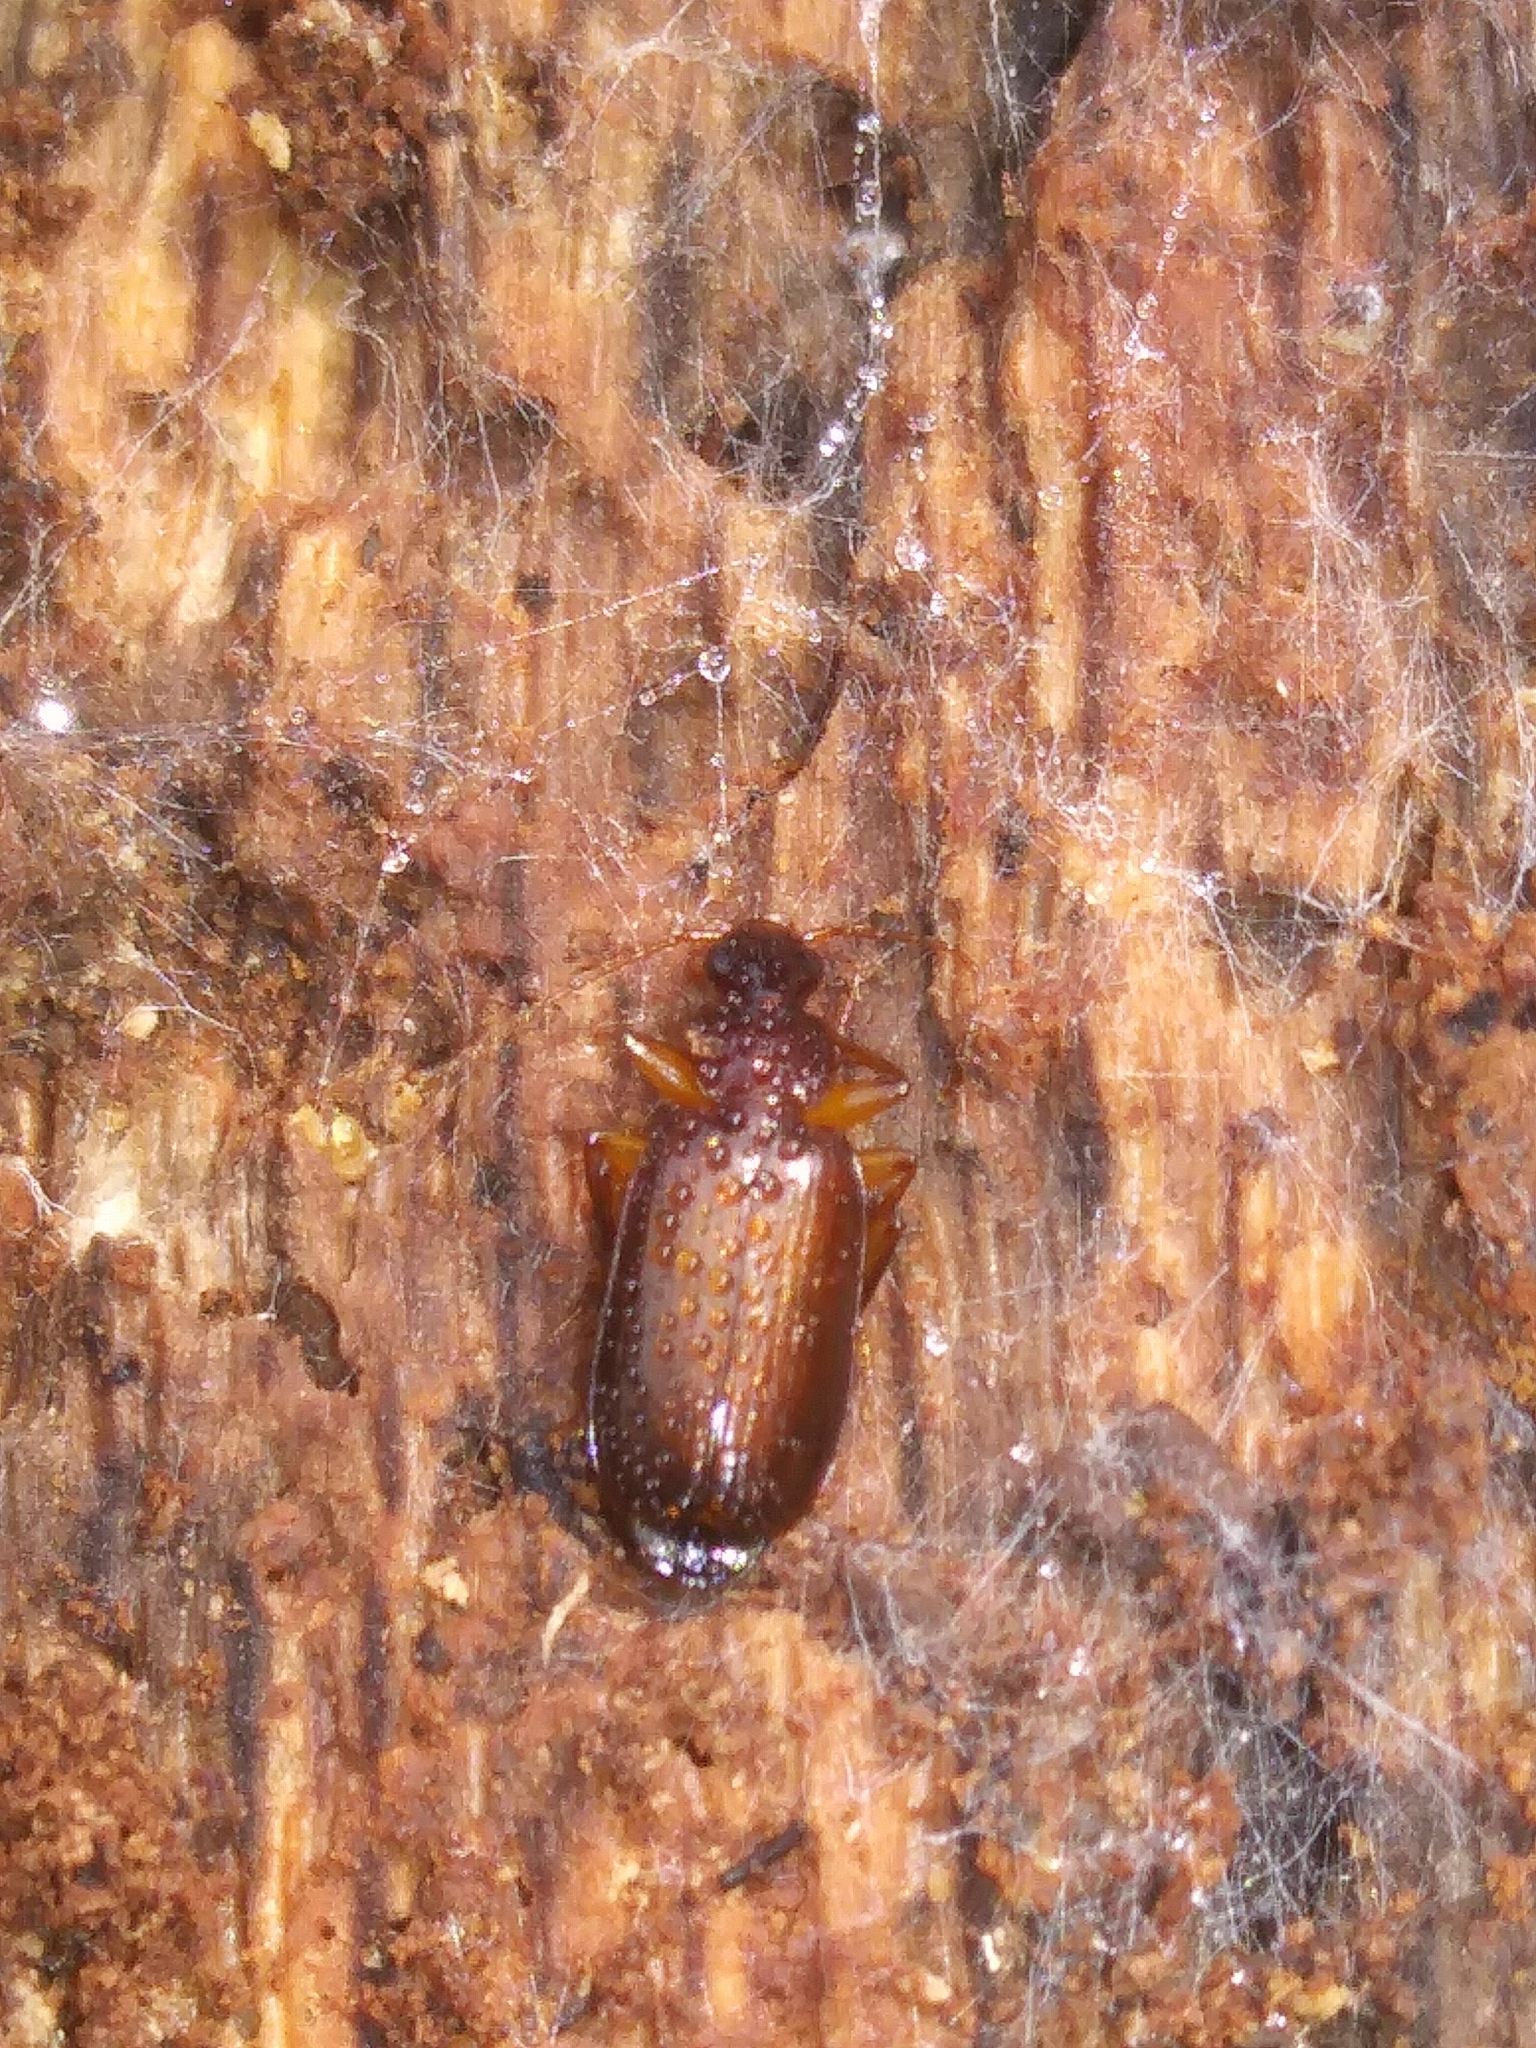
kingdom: Animalia
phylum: Arthropoda
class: Insecta
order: Coleoptera
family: Carabidae
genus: Dromius
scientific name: Dromius piceus
